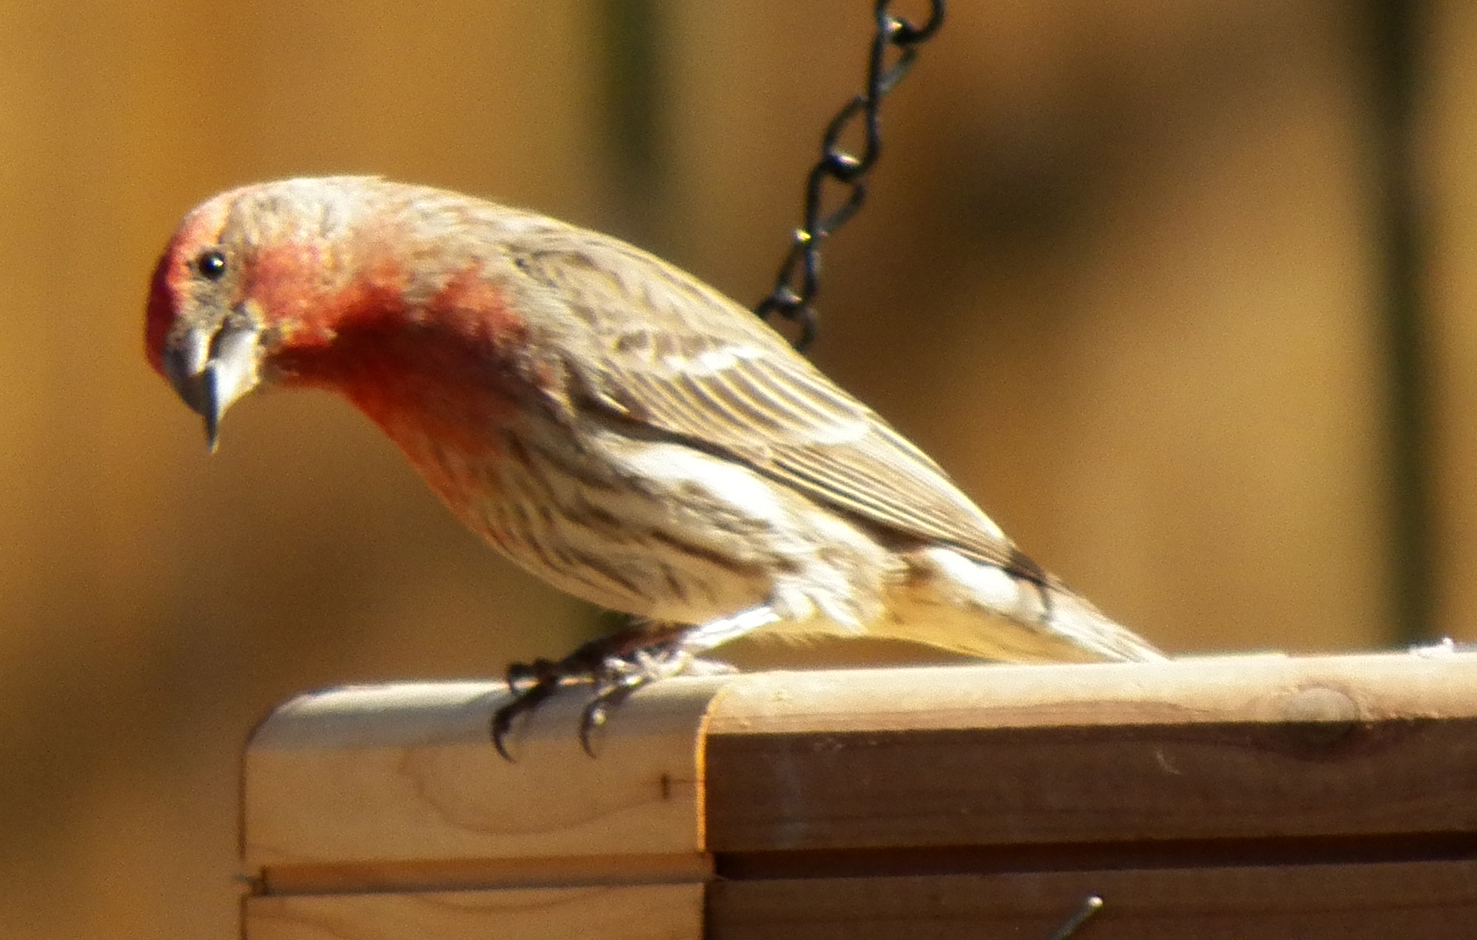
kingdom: Animalia
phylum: Chordata
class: Aves
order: Passeriformes
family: Fringillidae
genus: Haemorhous
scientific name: Haemorhous mexicanus
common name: House finch
